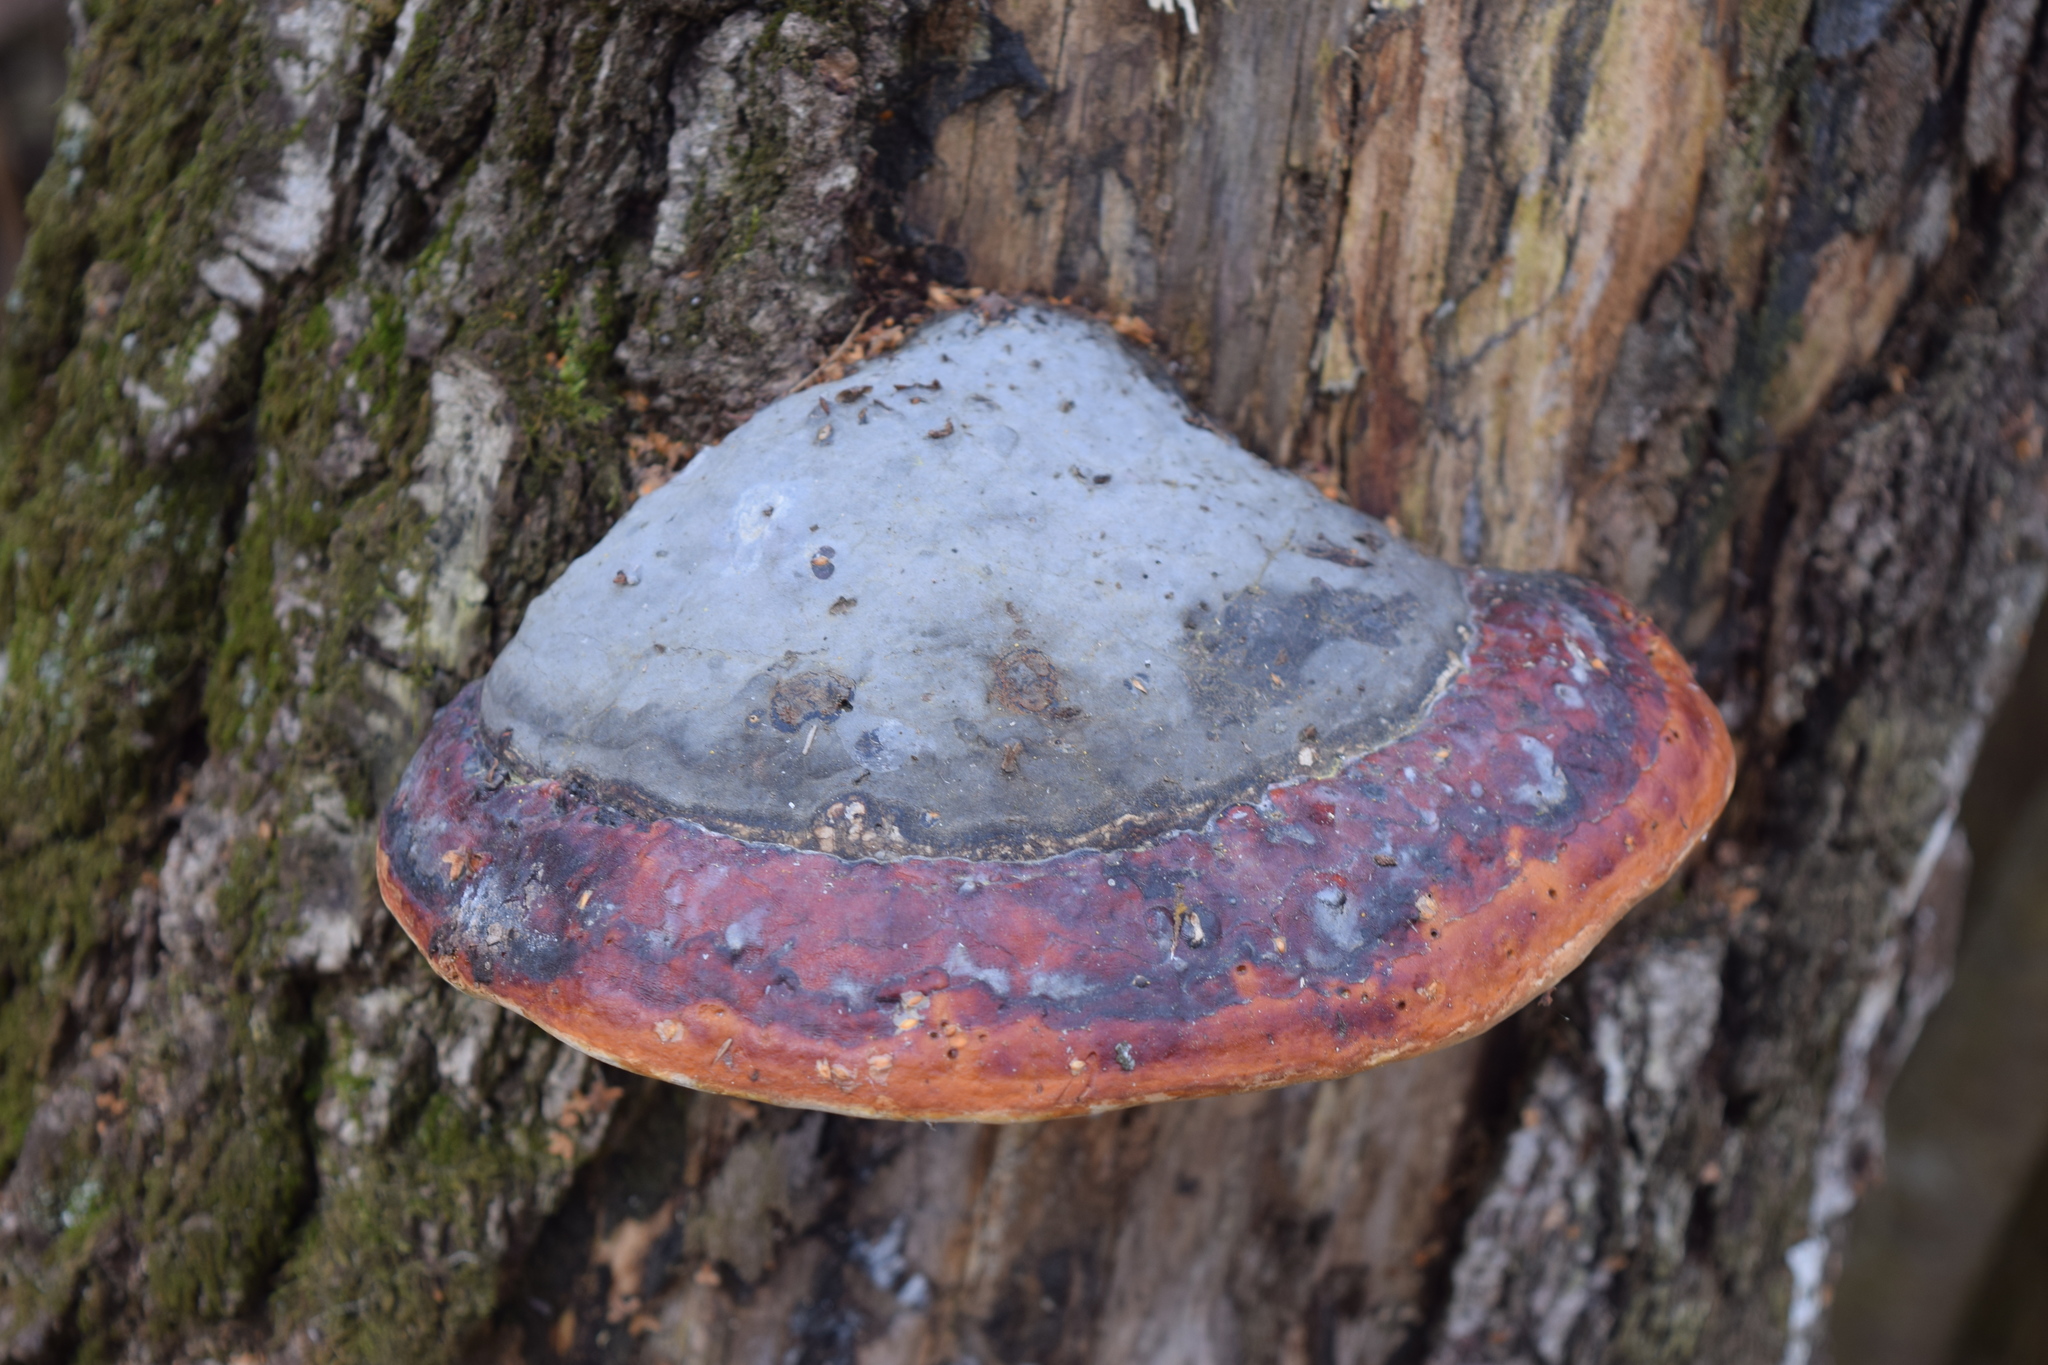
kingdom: Fungi
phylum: Basidiomycota
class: Agaricomycetes
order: Polyporales
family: Fomitopsidaceae
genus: Fomitopsis
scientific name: Fomitopsis pinicola
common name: Red-belted bracket
